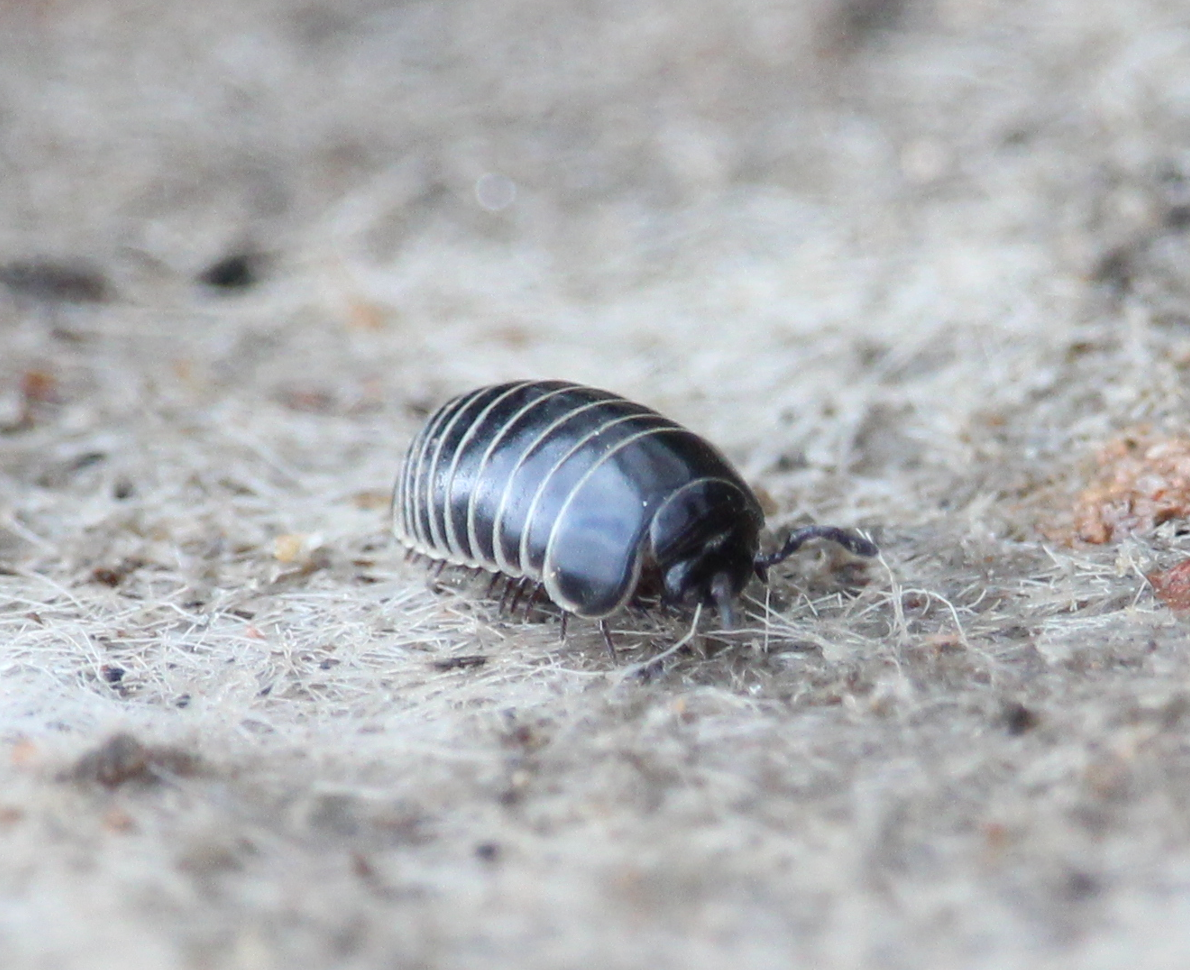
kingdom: Animalia
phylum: Arthropoda
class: Diplopoda
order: Glomerida
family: Glomeridae
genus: Glomeris
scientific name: Glomeris marginata
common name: Bordered pill millipede
